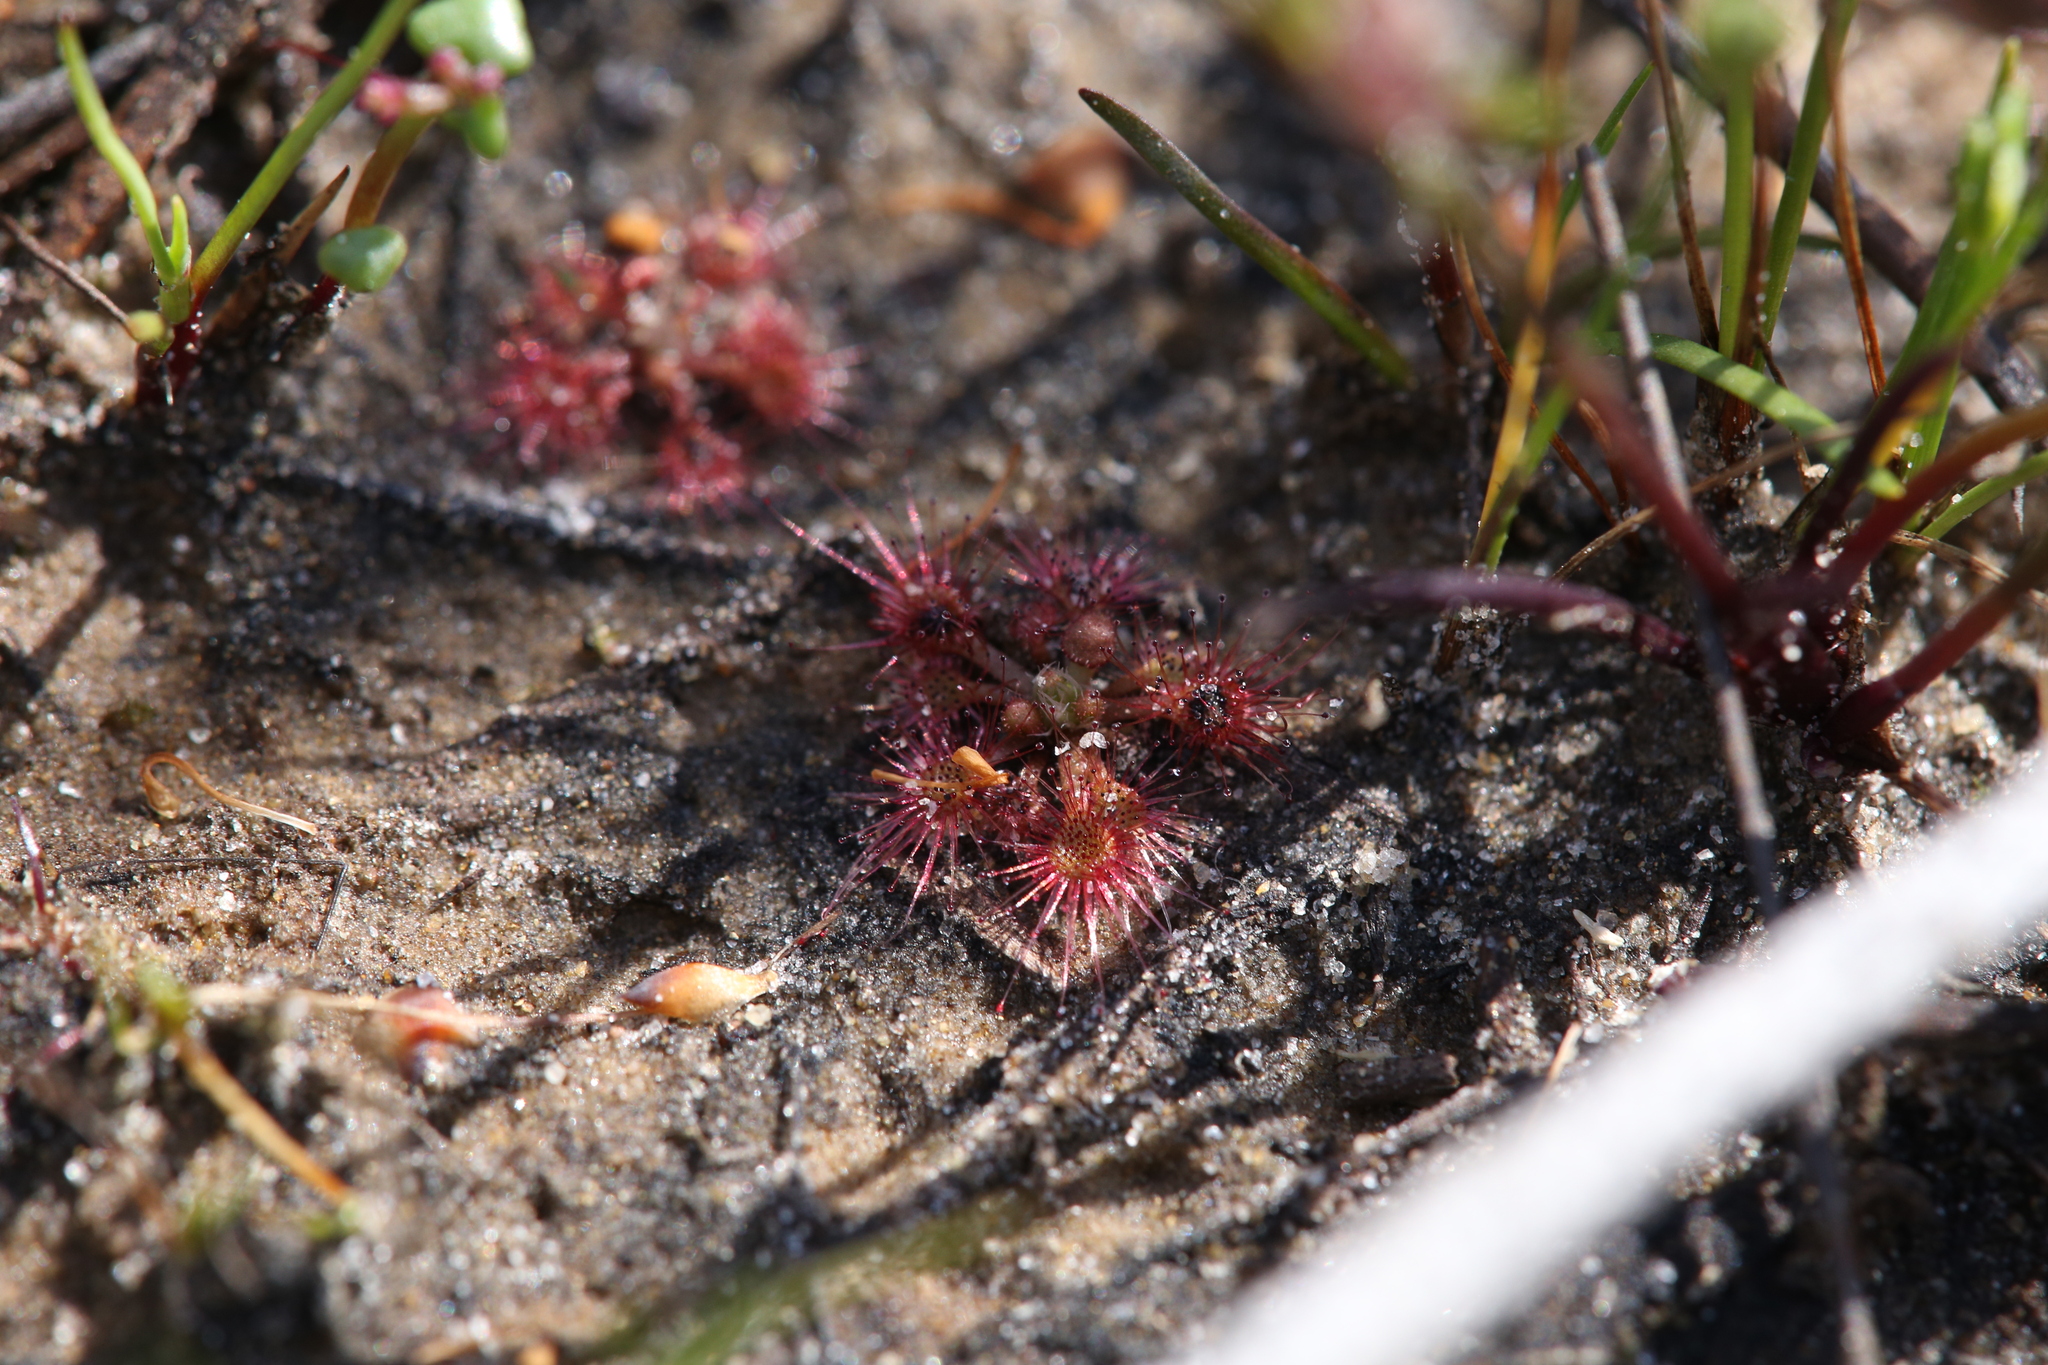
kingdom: Plantae
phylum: Tracheophyta
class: Magnoliopsida
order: Caryophyllales
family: Droseraceae
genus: Drosera
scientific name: Drosera nitidula
